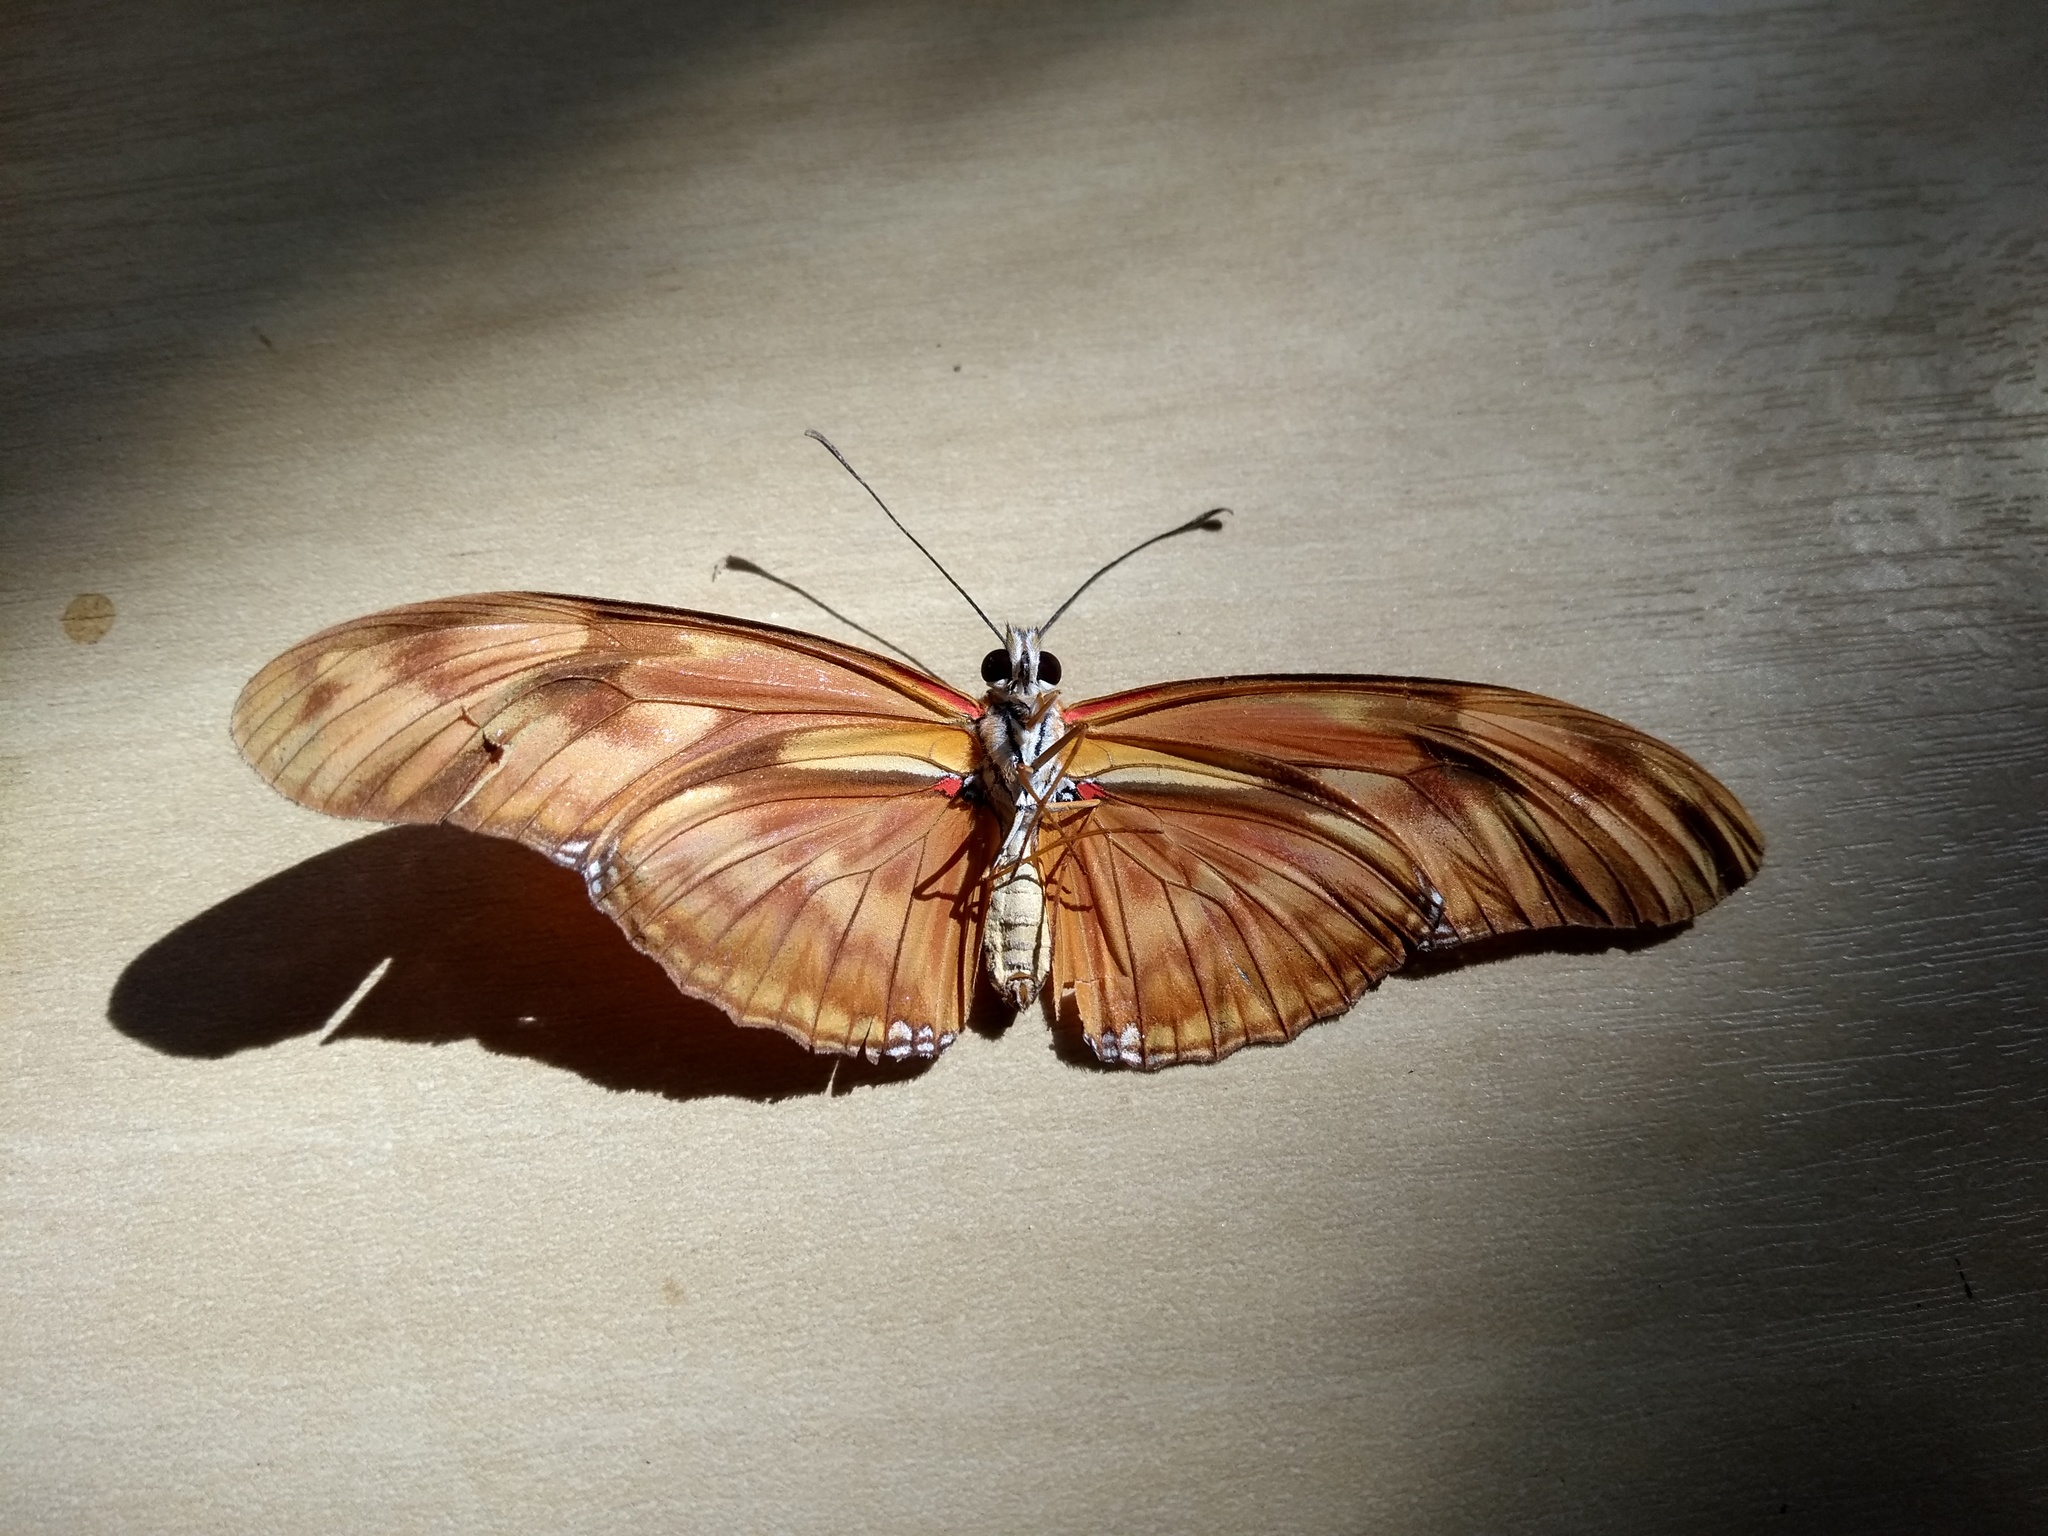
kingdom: Animalia
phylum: Arthropoda
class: Insecta
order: Lepidoptera
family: Nymphalidae
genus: Dryas
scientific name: Dryas iulia
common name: Flambeau
